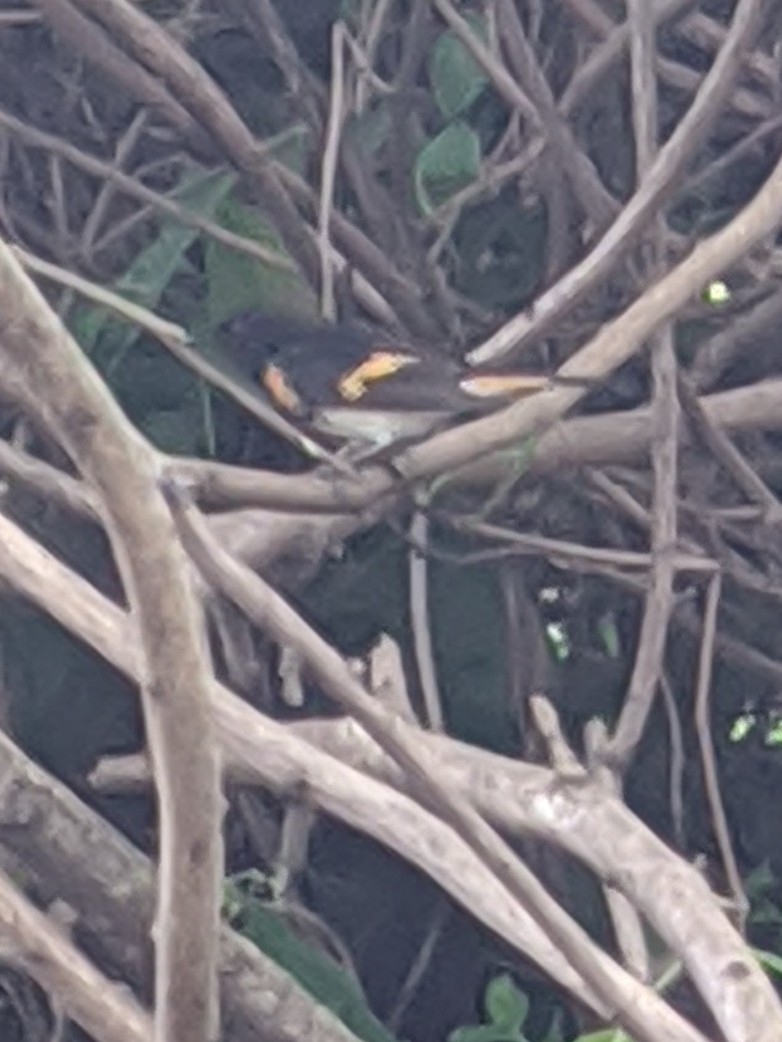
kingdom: Animalia
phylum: Chordata
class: Aves
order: Passeriformes
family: Parulidae
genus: Setophaga
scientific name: Setophaga ruticilla
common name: American redstart
